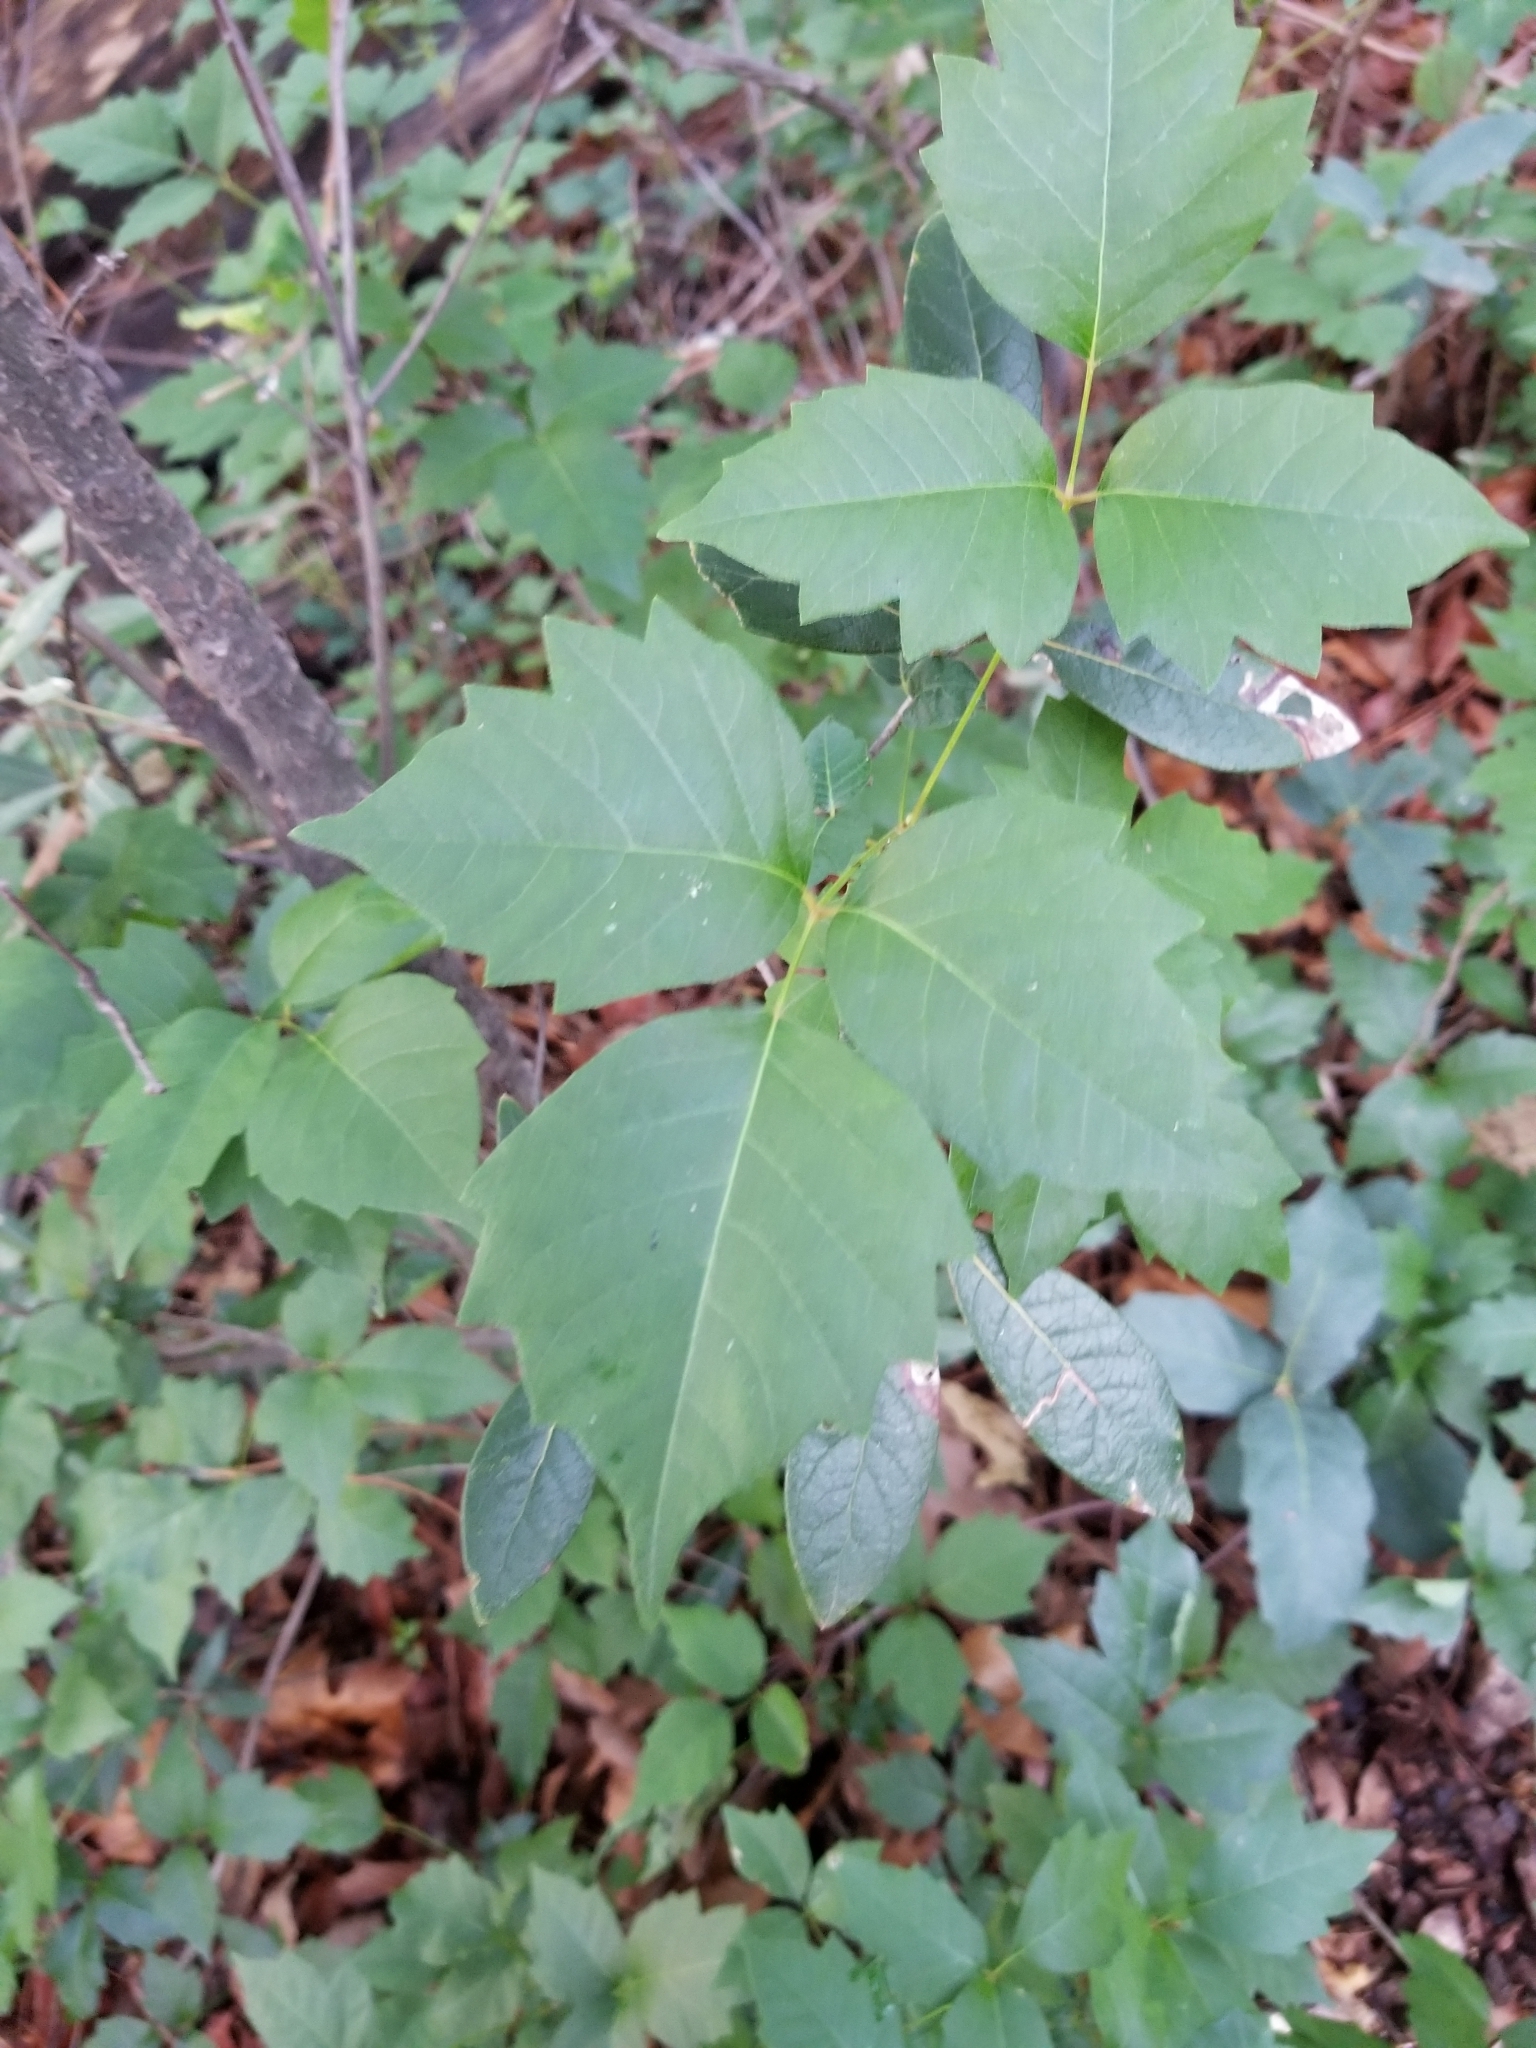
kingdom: Plantae
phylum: Tracheophyta
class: Magnoliopsida
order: Sapindales
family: Anacardiaceae
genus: Toxicodendron
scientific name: Toxicodendron radicans
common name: Poison ivy
